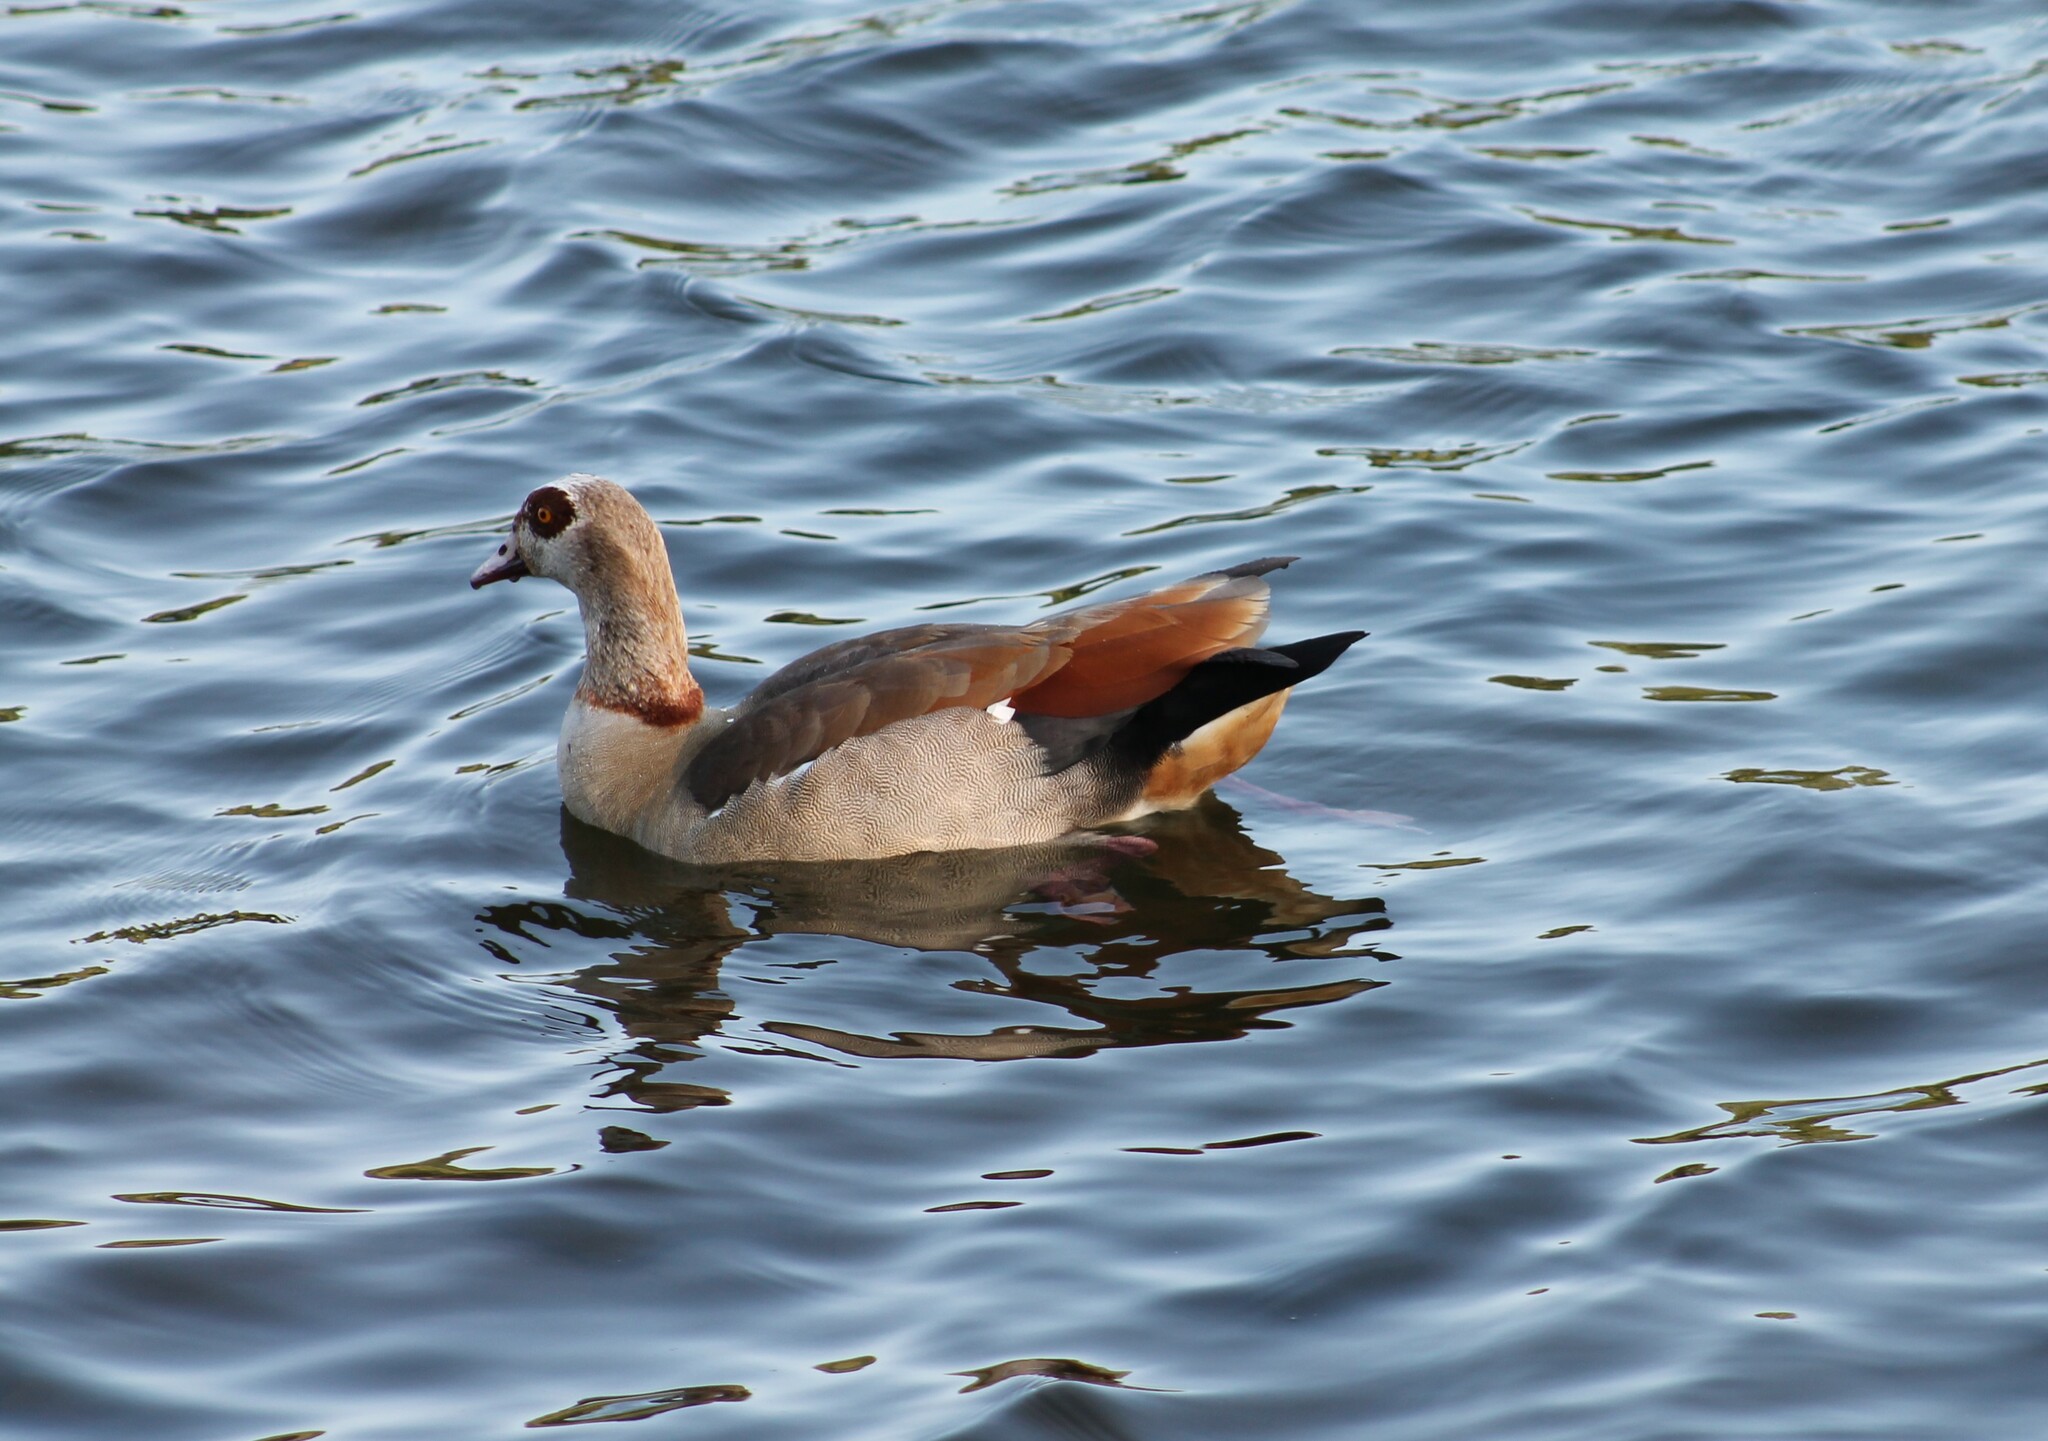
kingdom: Animalia
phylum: Chordata
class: Aves
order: Anseriformes
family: Anatidae
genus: Alopochen
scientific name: Alopochen aegyptiaca
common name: Egyptian goose
